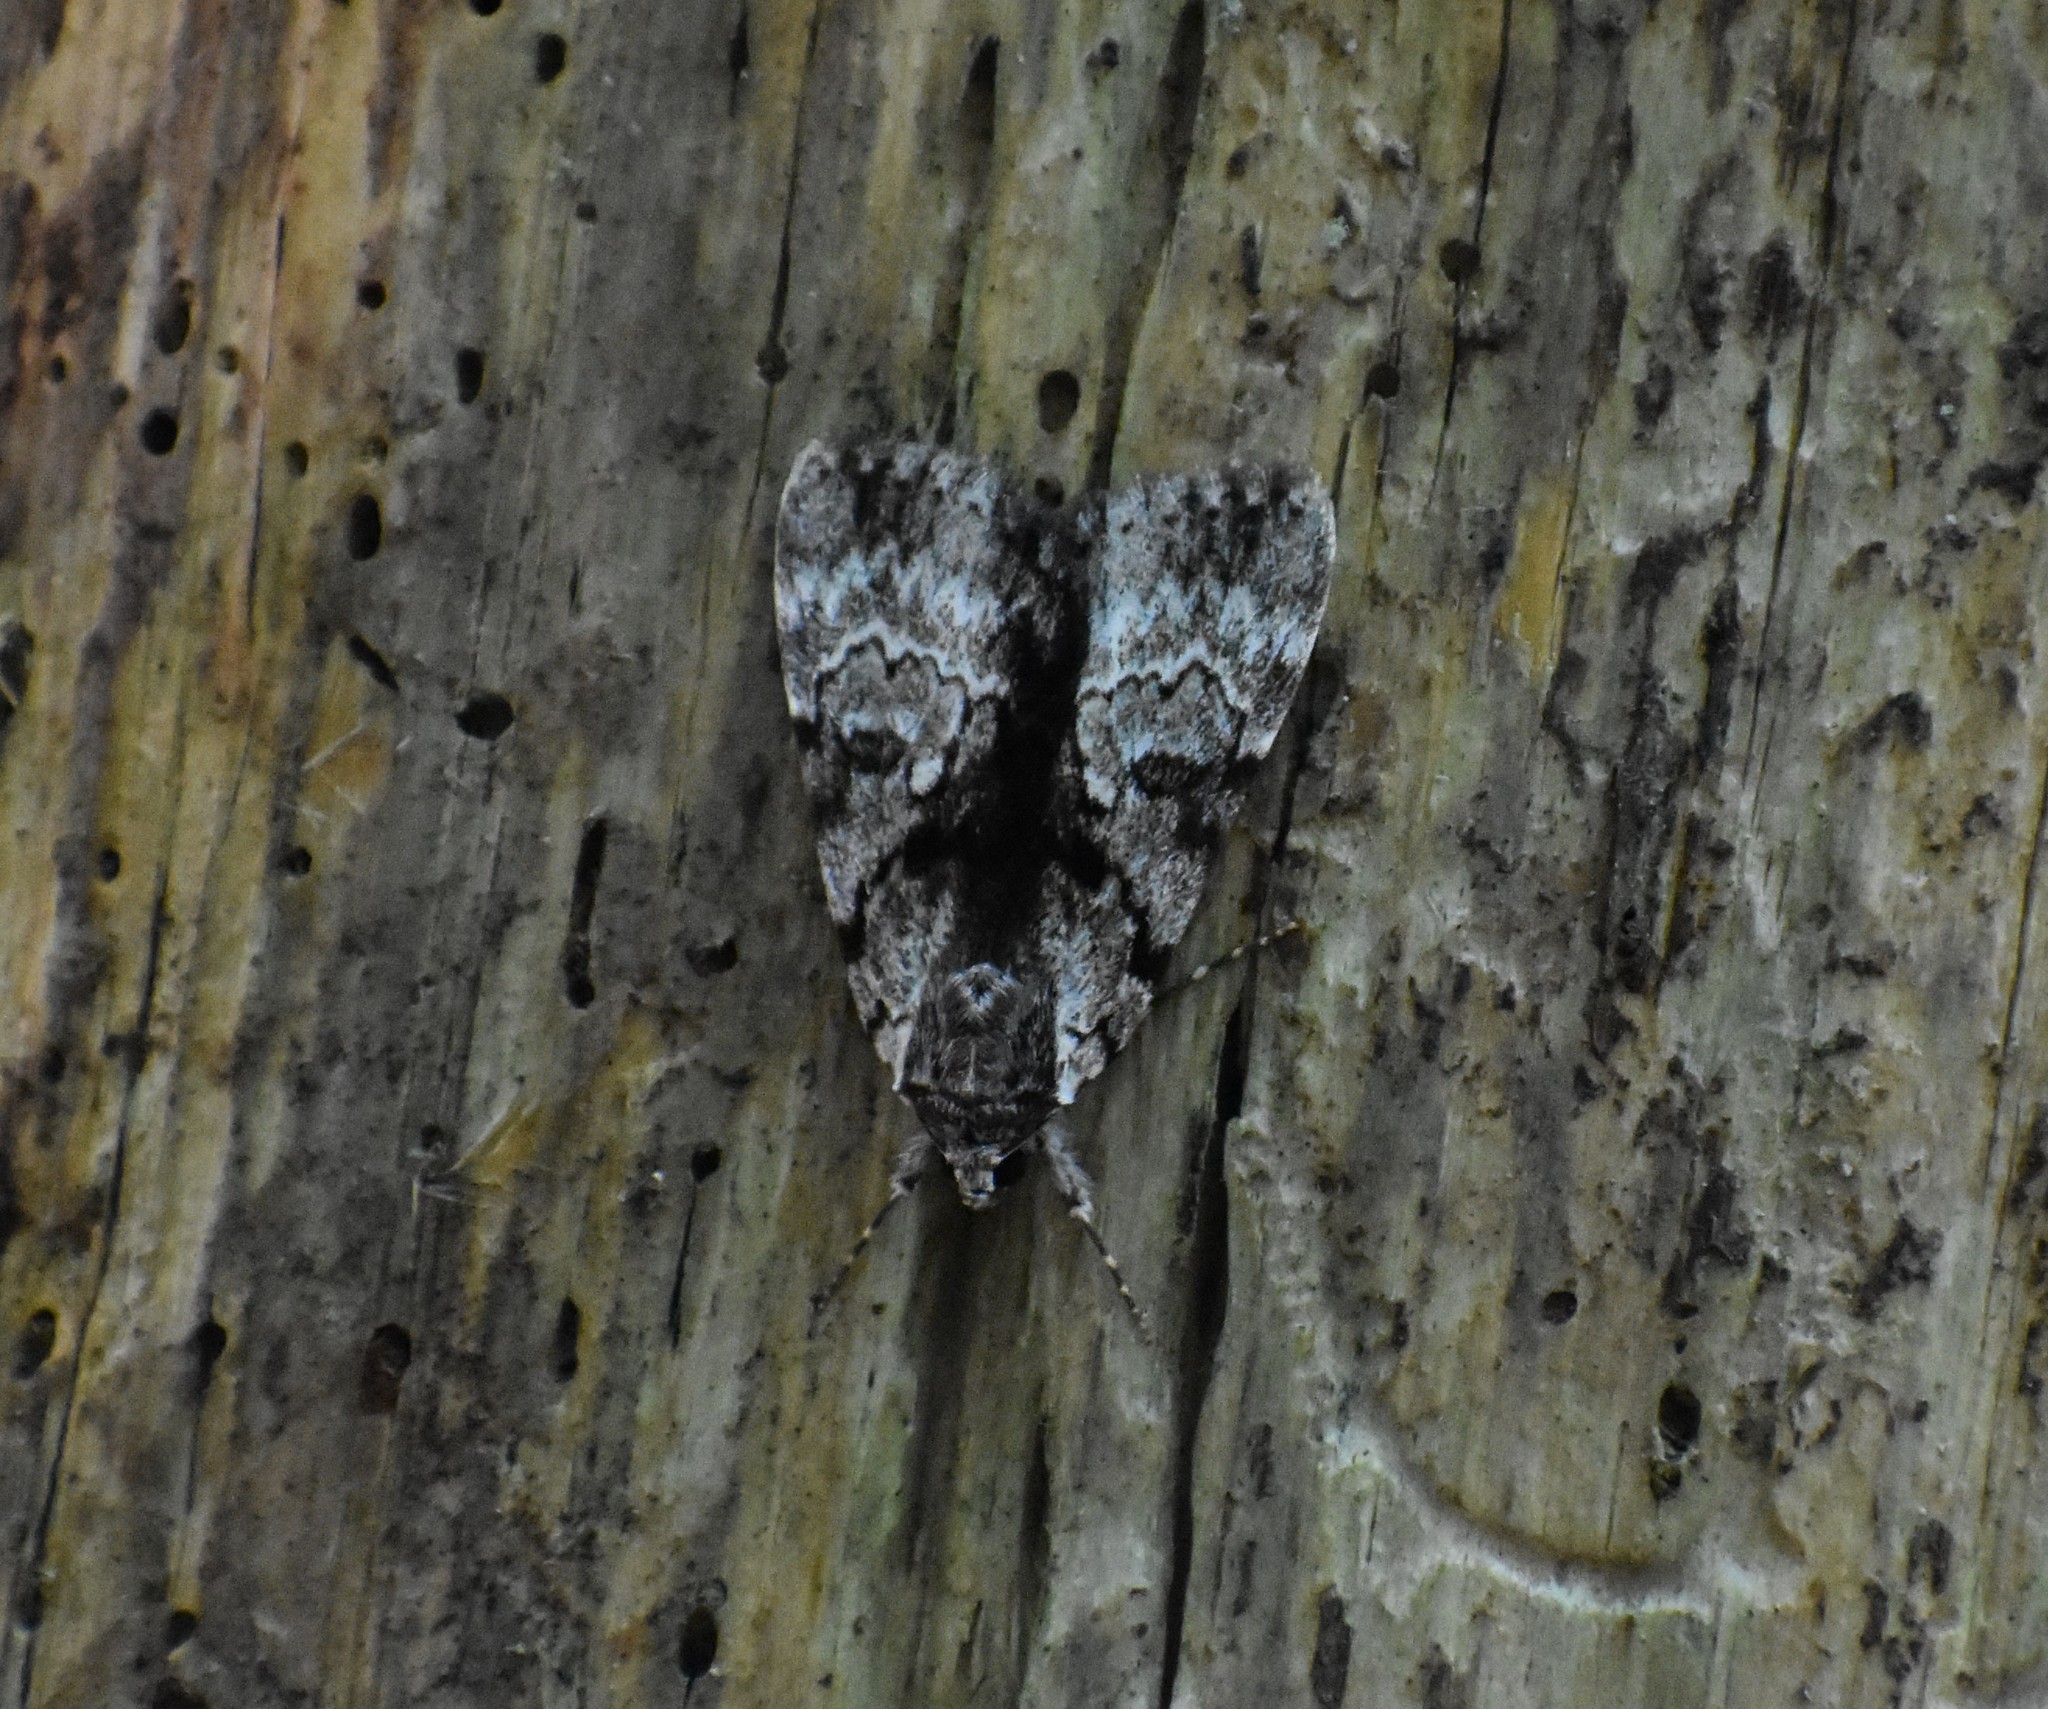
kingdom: Animalia
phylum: Arthropoda
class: Insecta
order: Lepidoptera
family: Erebidae
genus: Catocala
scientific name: Catocala andromedae
